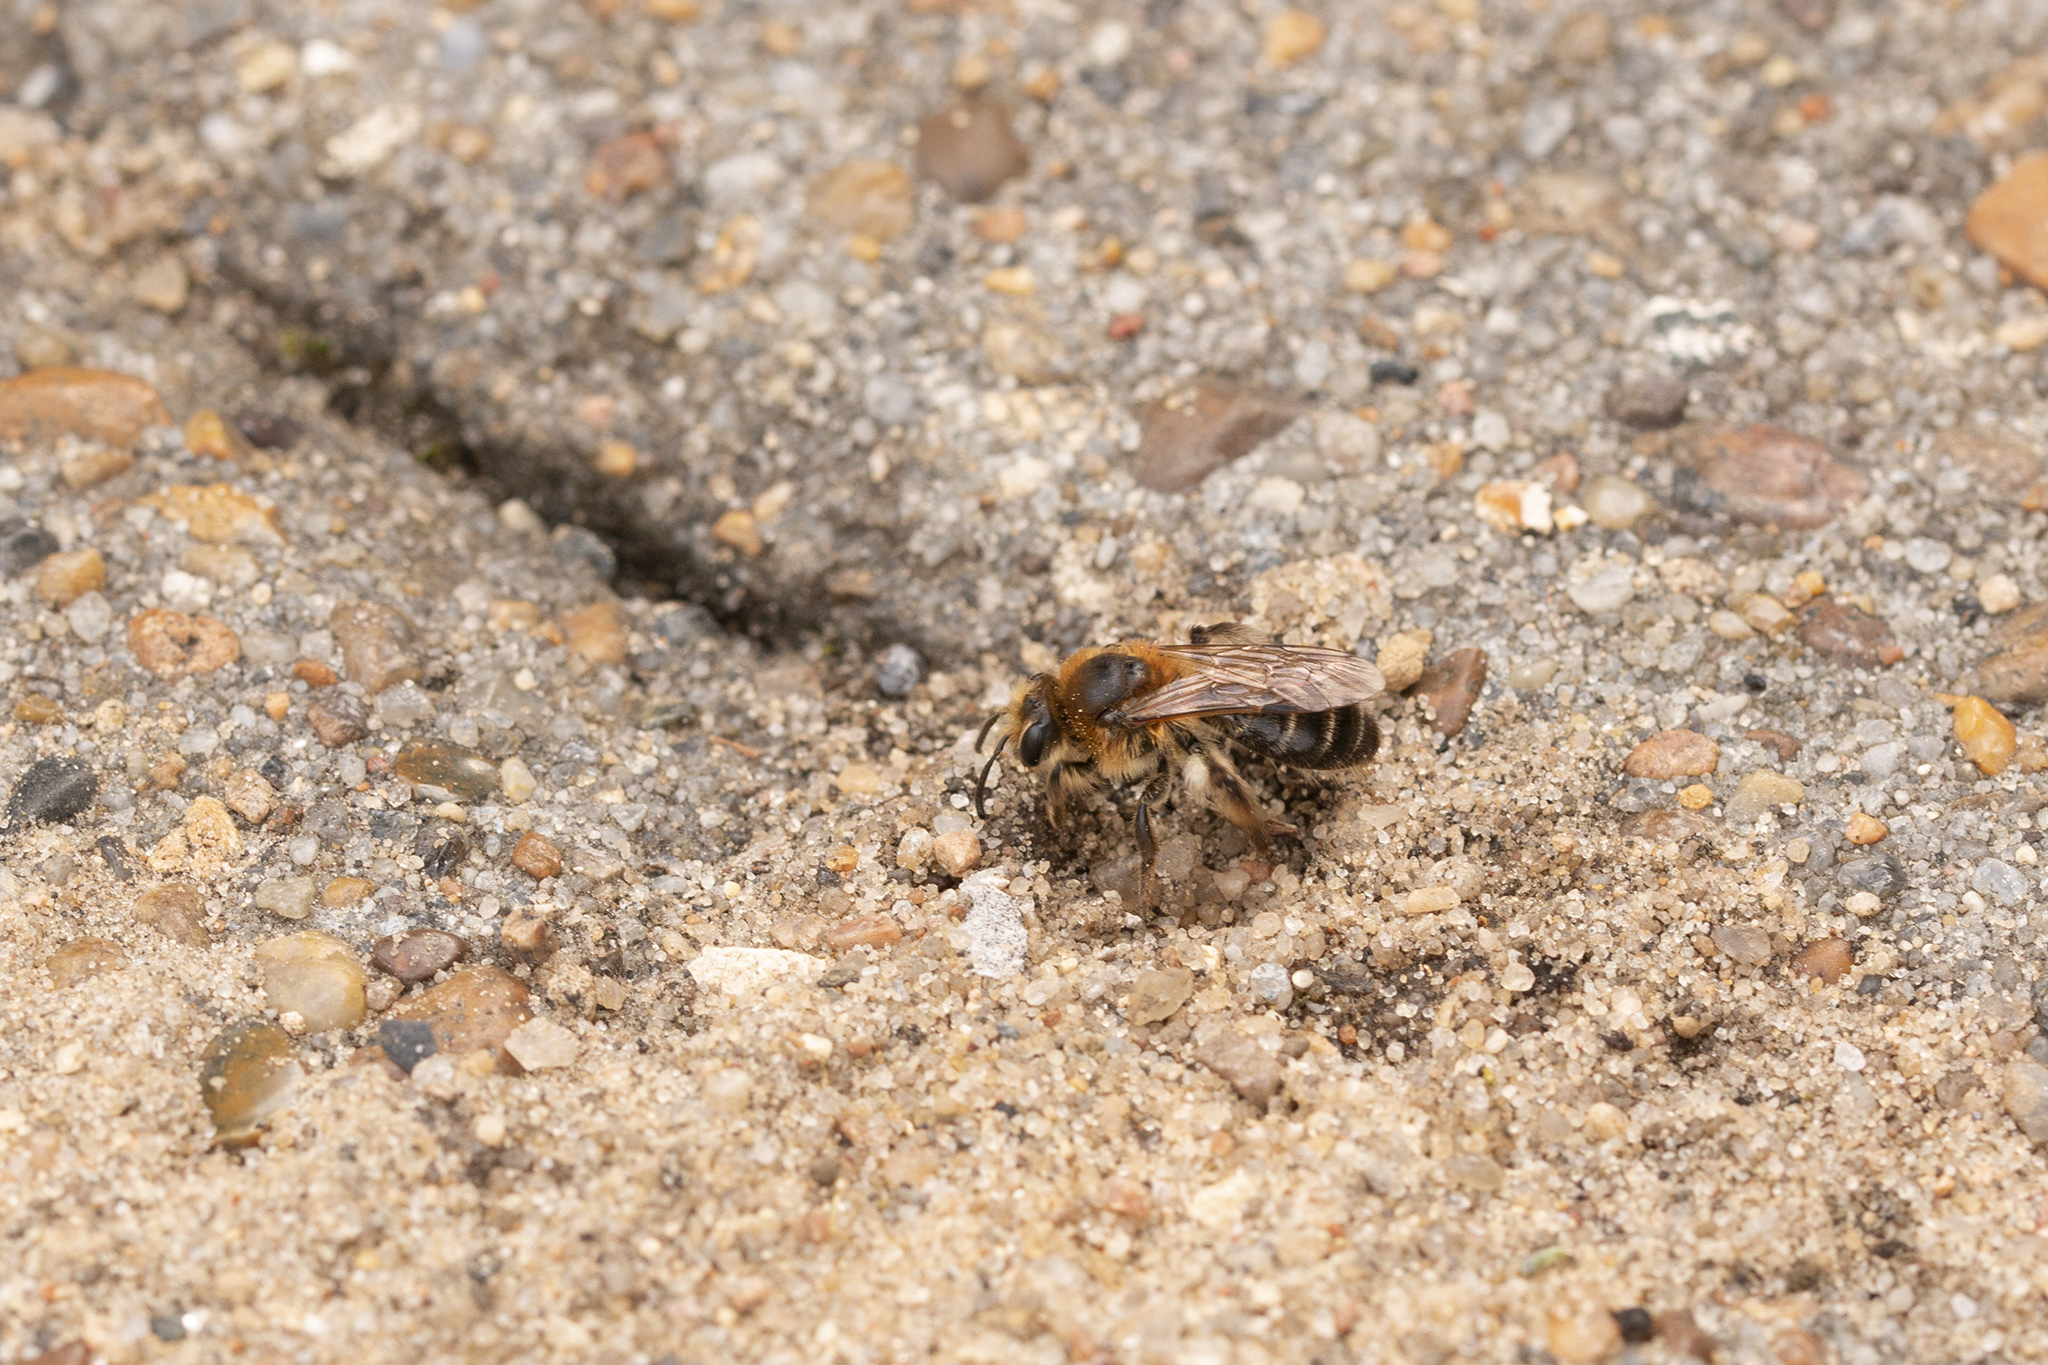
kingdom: Animalia
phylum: Arthropoda
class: Insecta
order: Hymenoptera
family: Andrenidae
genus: Andrena
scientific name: Andrena barbilabris
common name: Sandpit mining bee
